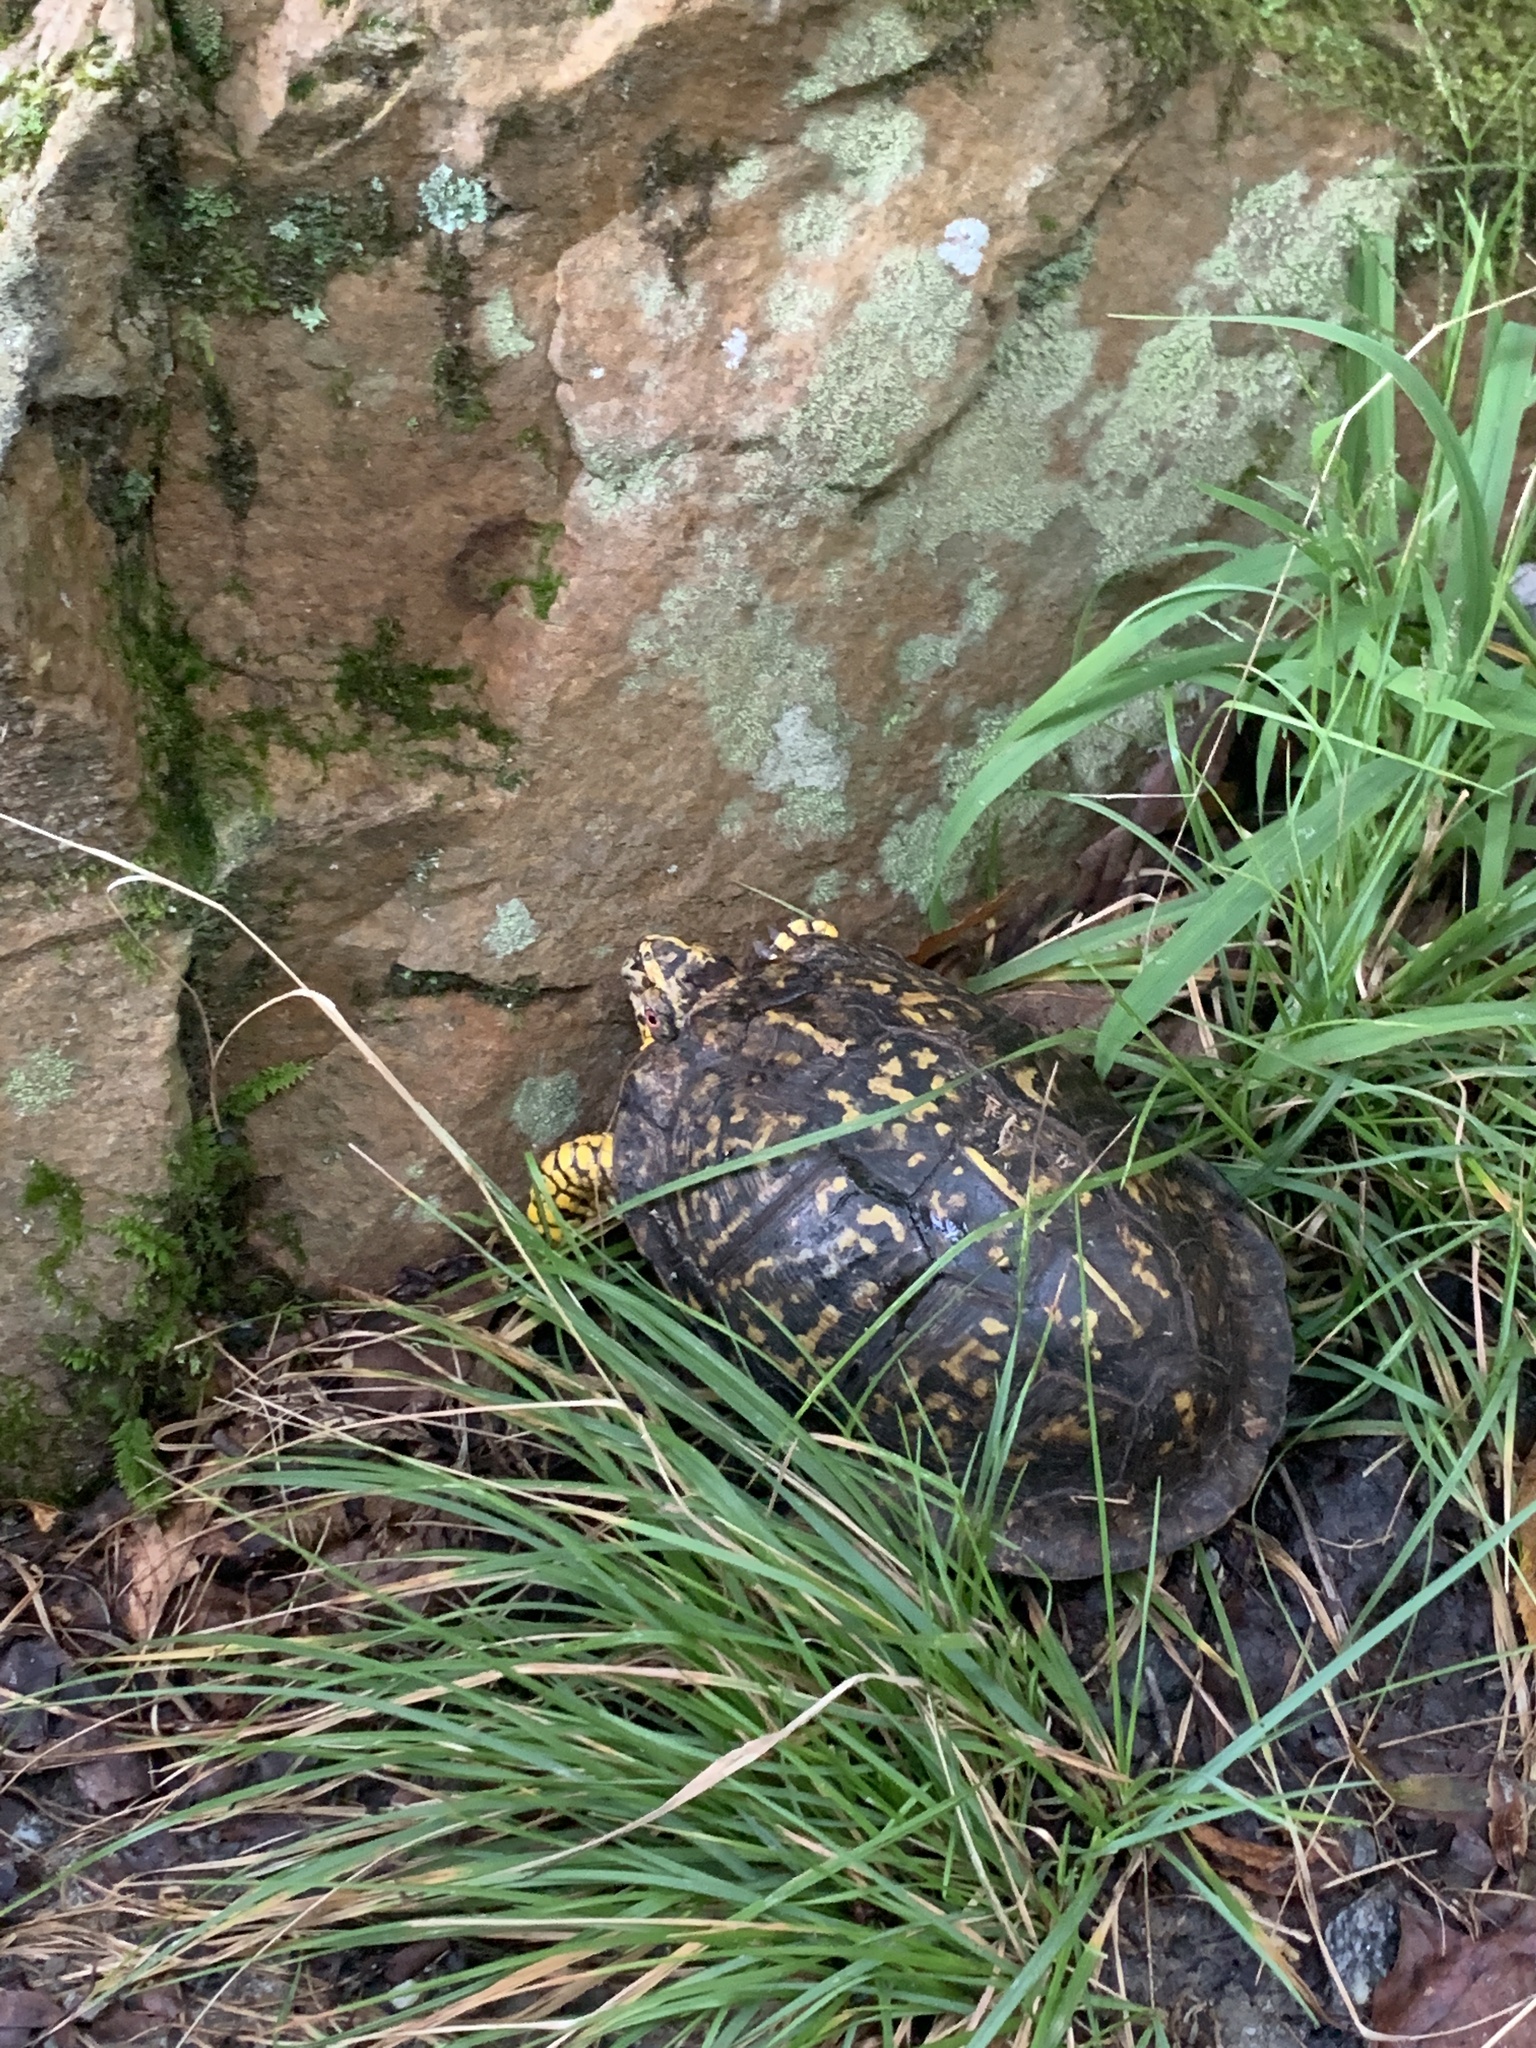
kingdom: Animalia
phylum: Chordata
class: Testudines
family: Emydidae
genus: Terrapene
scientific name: Terrapene carolina
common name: Common box turtle
